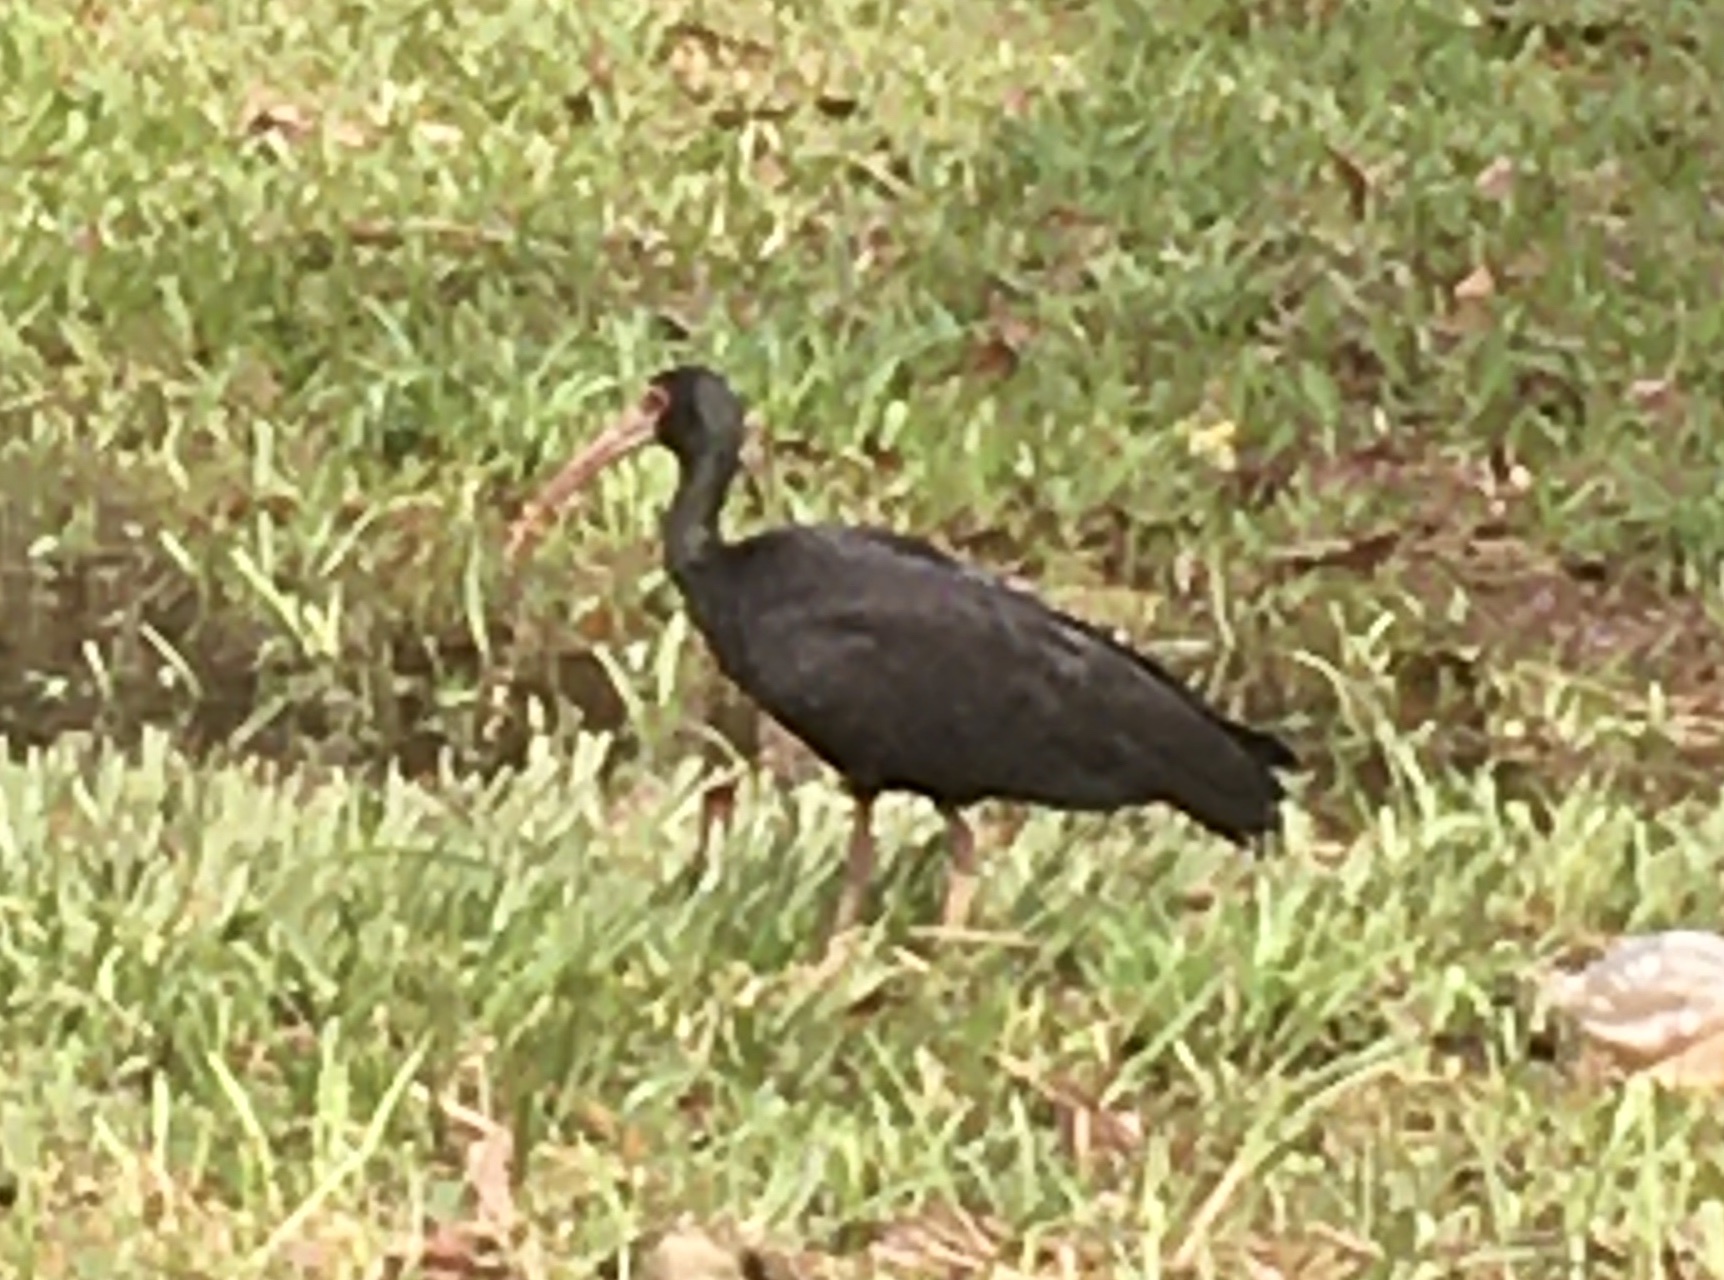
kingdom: Animalia
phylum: Chordata
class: Aves
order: Pelecaniformes
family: Threskiornithidae
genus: Phimosus
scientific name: Phimosus infuscatus
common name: Bare-faced ibis
